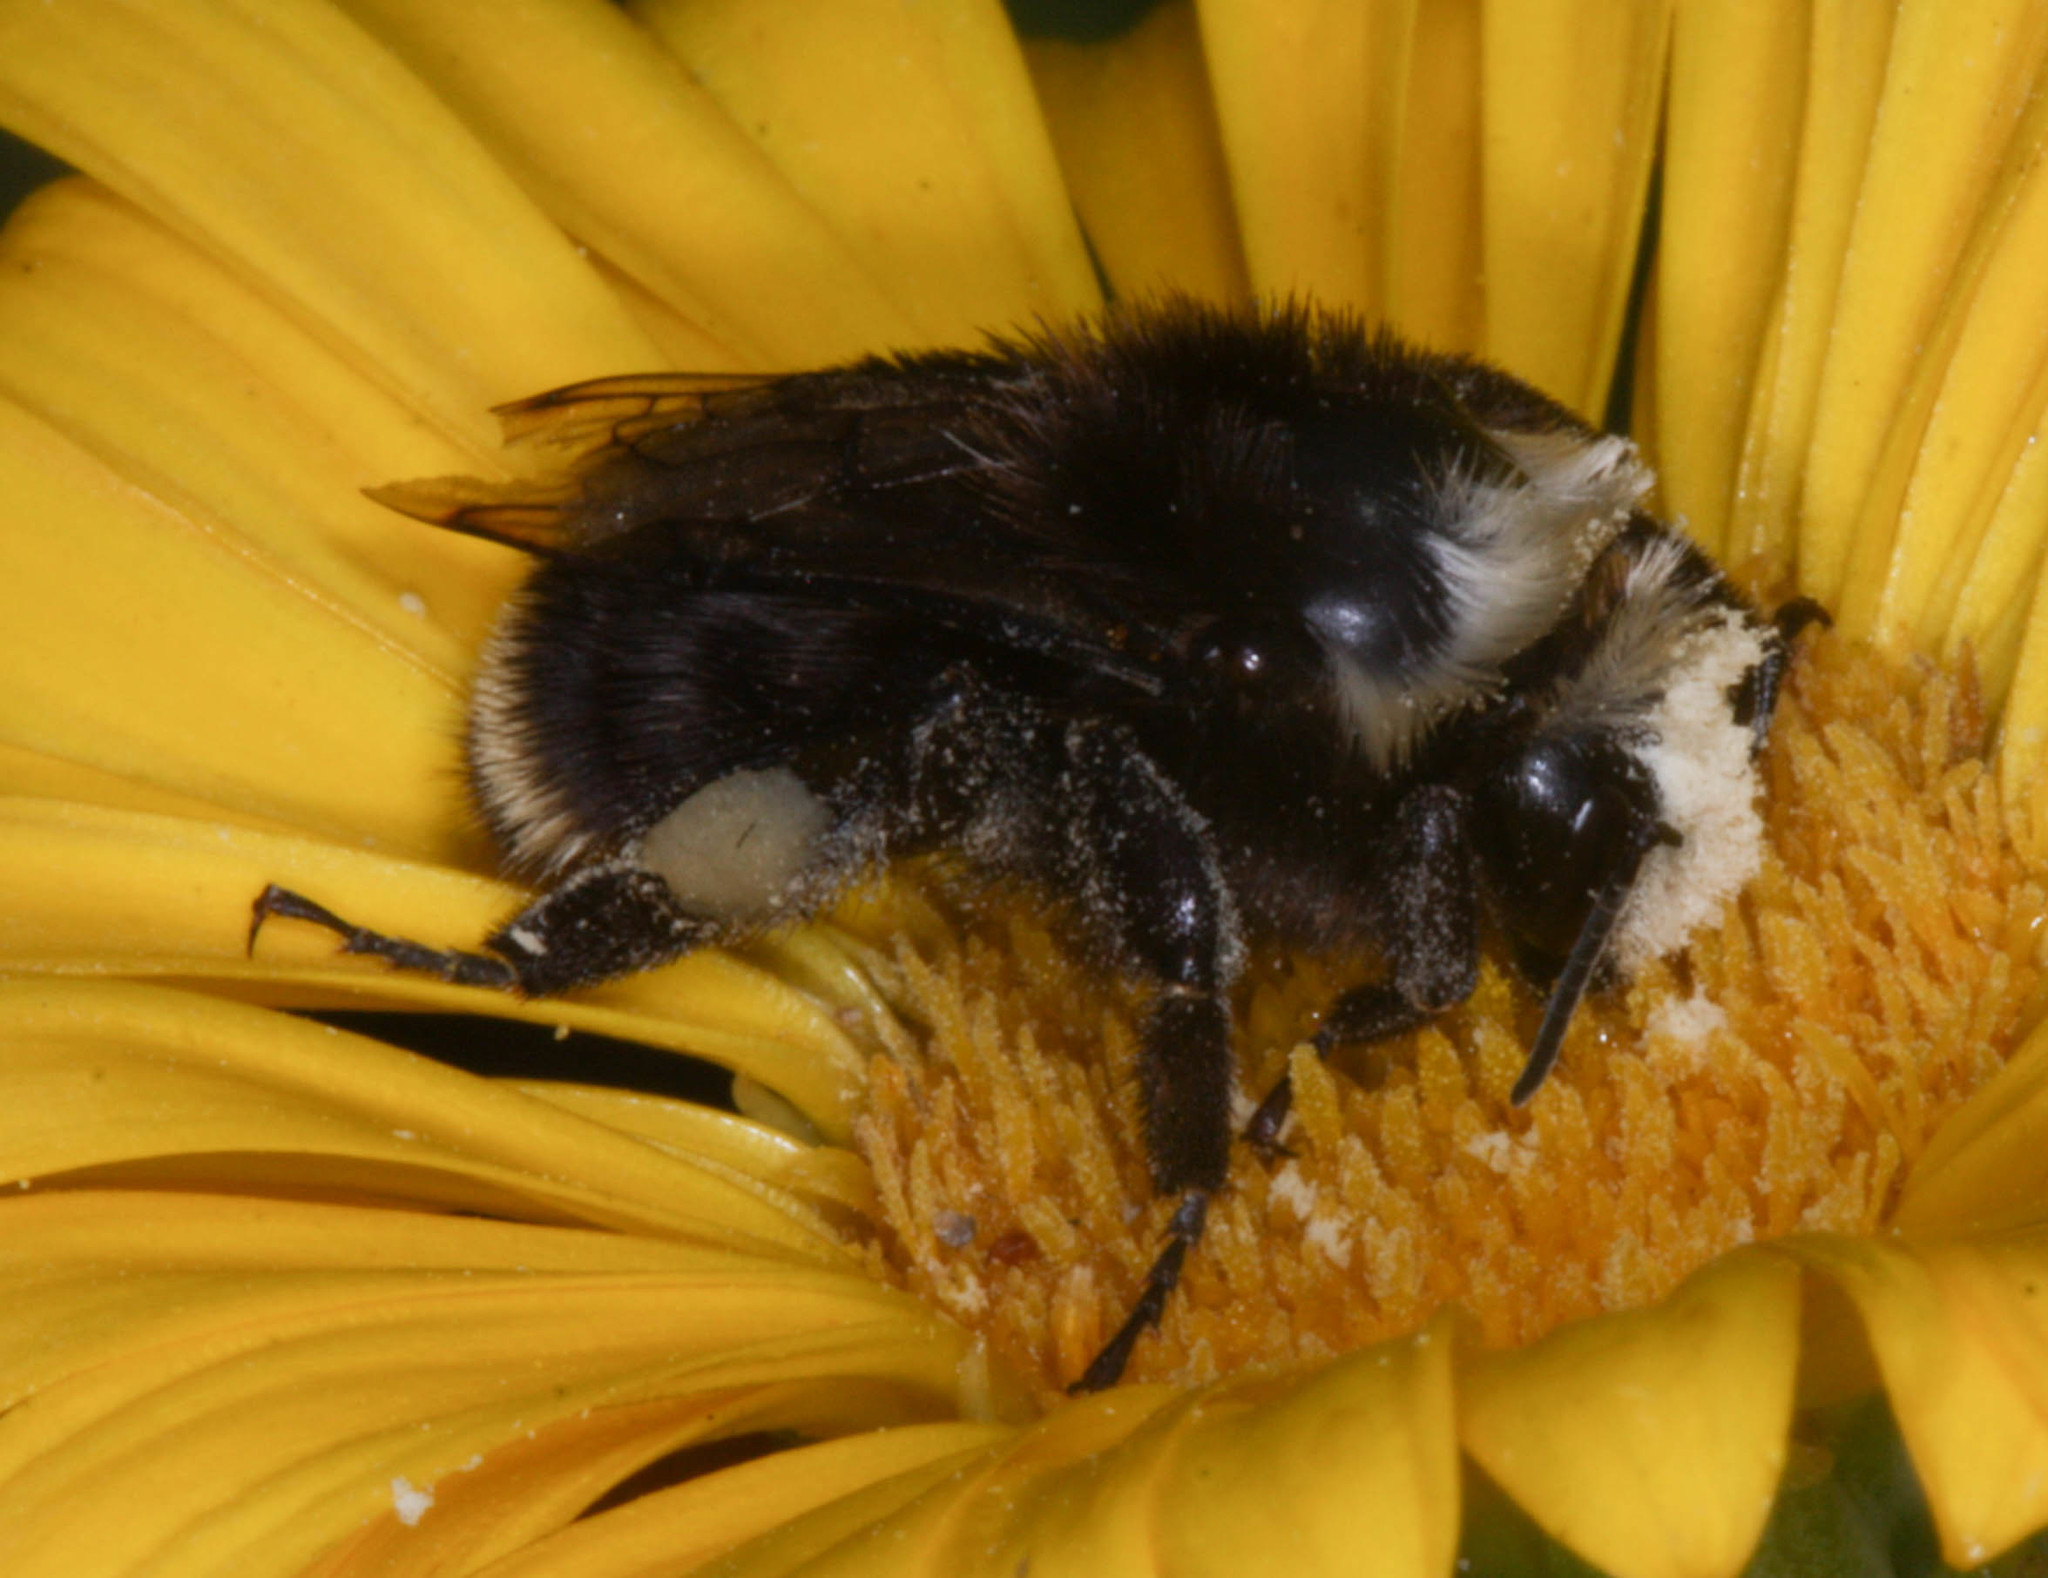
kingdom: Animalia
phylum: Arthropoda
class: Insecta
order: Hymenoptera
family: Apidae
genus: Pyrobombus
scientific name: Pyrobombus
